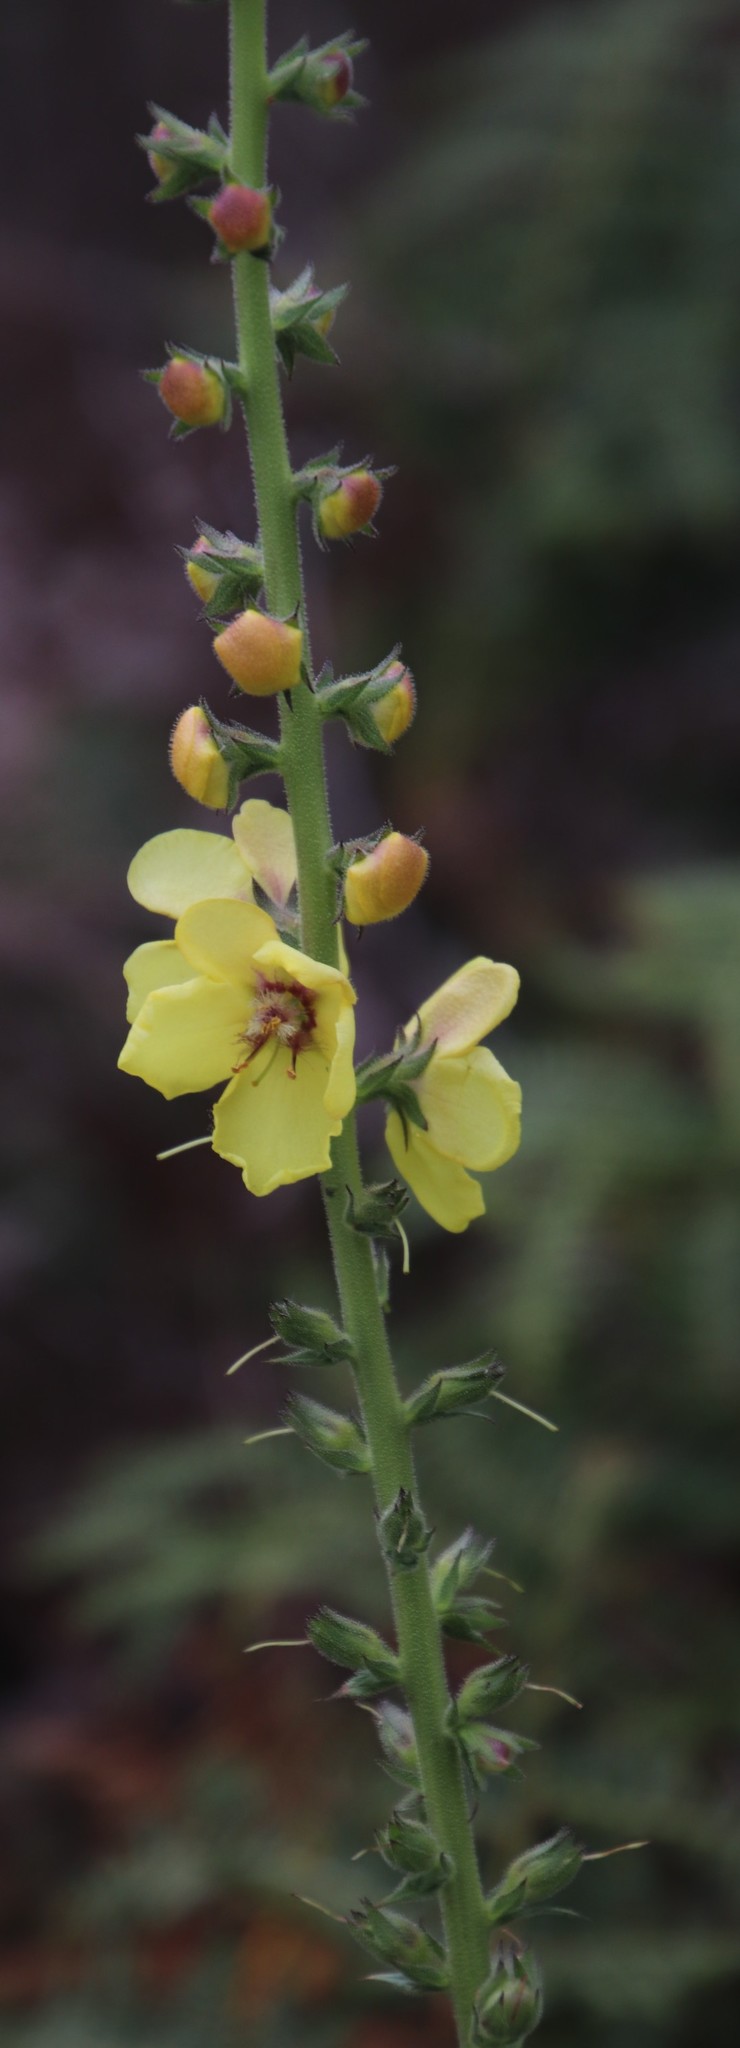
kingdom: Plantae
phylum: Tracheophyta
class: Magnoliopsida
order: Lamiales
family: Scrophulariaceae
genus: Verbascum
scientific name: Verbascum virgatum
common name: Twiggy mullein
